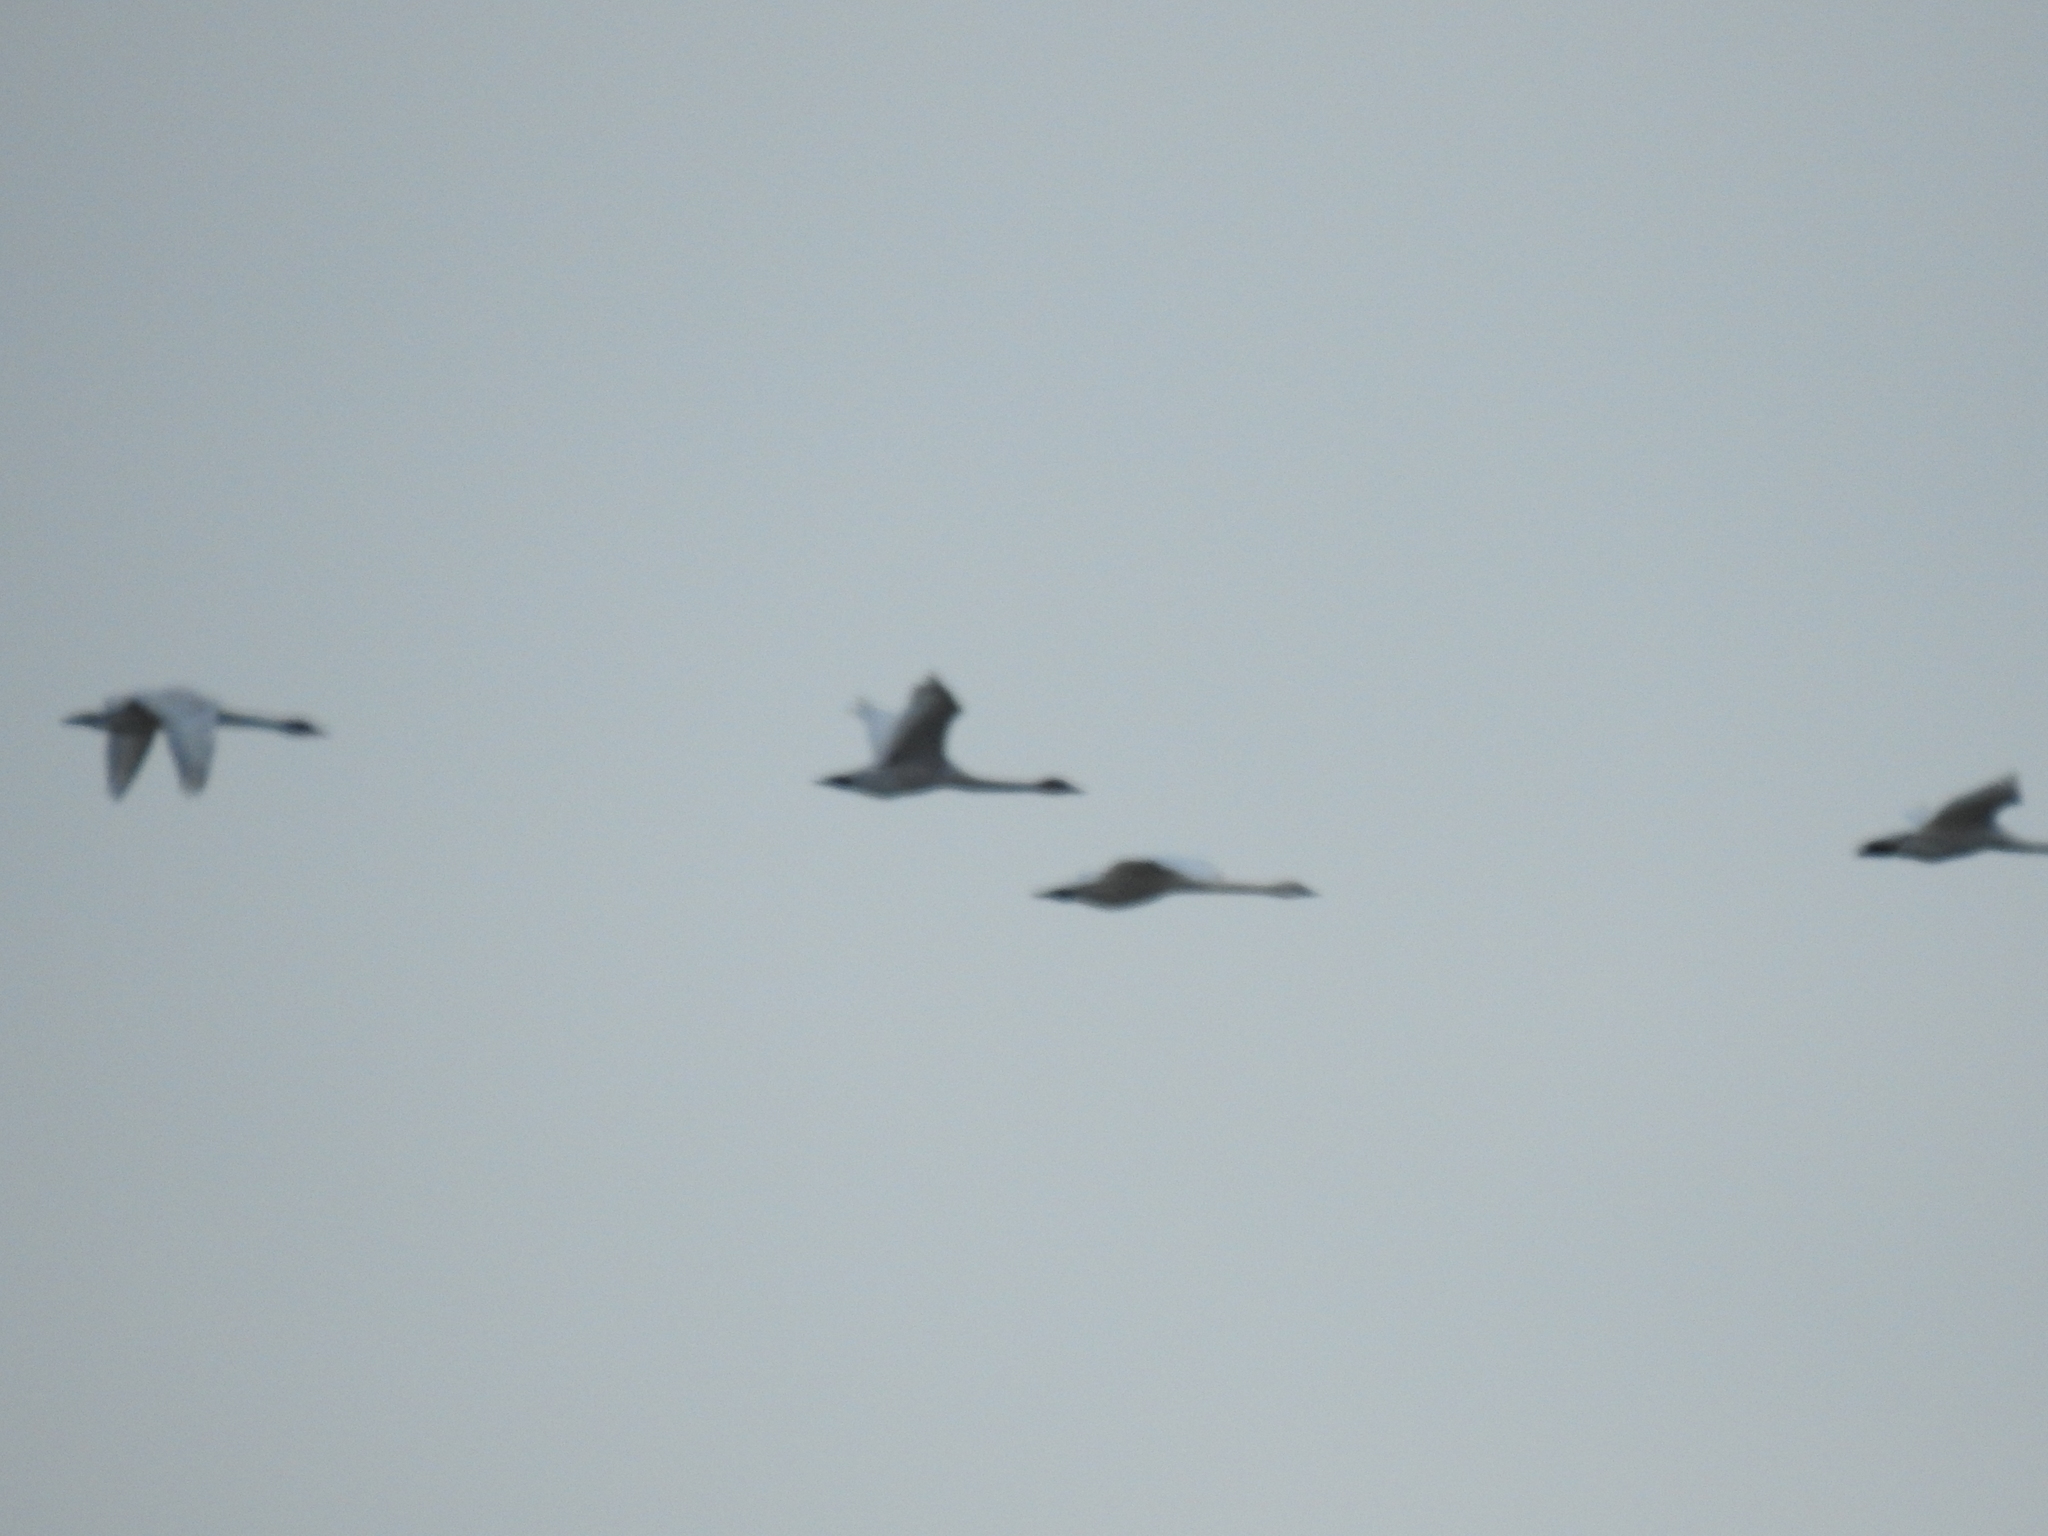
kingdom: Animalia
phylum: Chordata
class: Aves
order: Anseriformes
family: Anatidae
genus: Cygnus
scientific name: Cygnus columbianus
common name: Tundra swan
